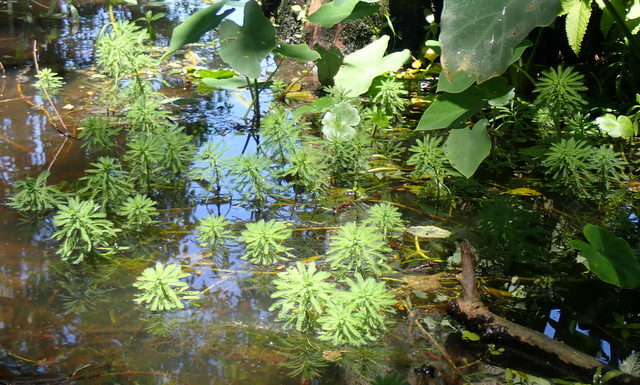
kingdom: Plantae
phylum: Tracheophyta
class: Magnoliopsida
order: Saxifragales
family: Haloragaceae
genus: Myriophyllum
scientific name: Myriophyllum aquaticum
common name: Parrot's feather
